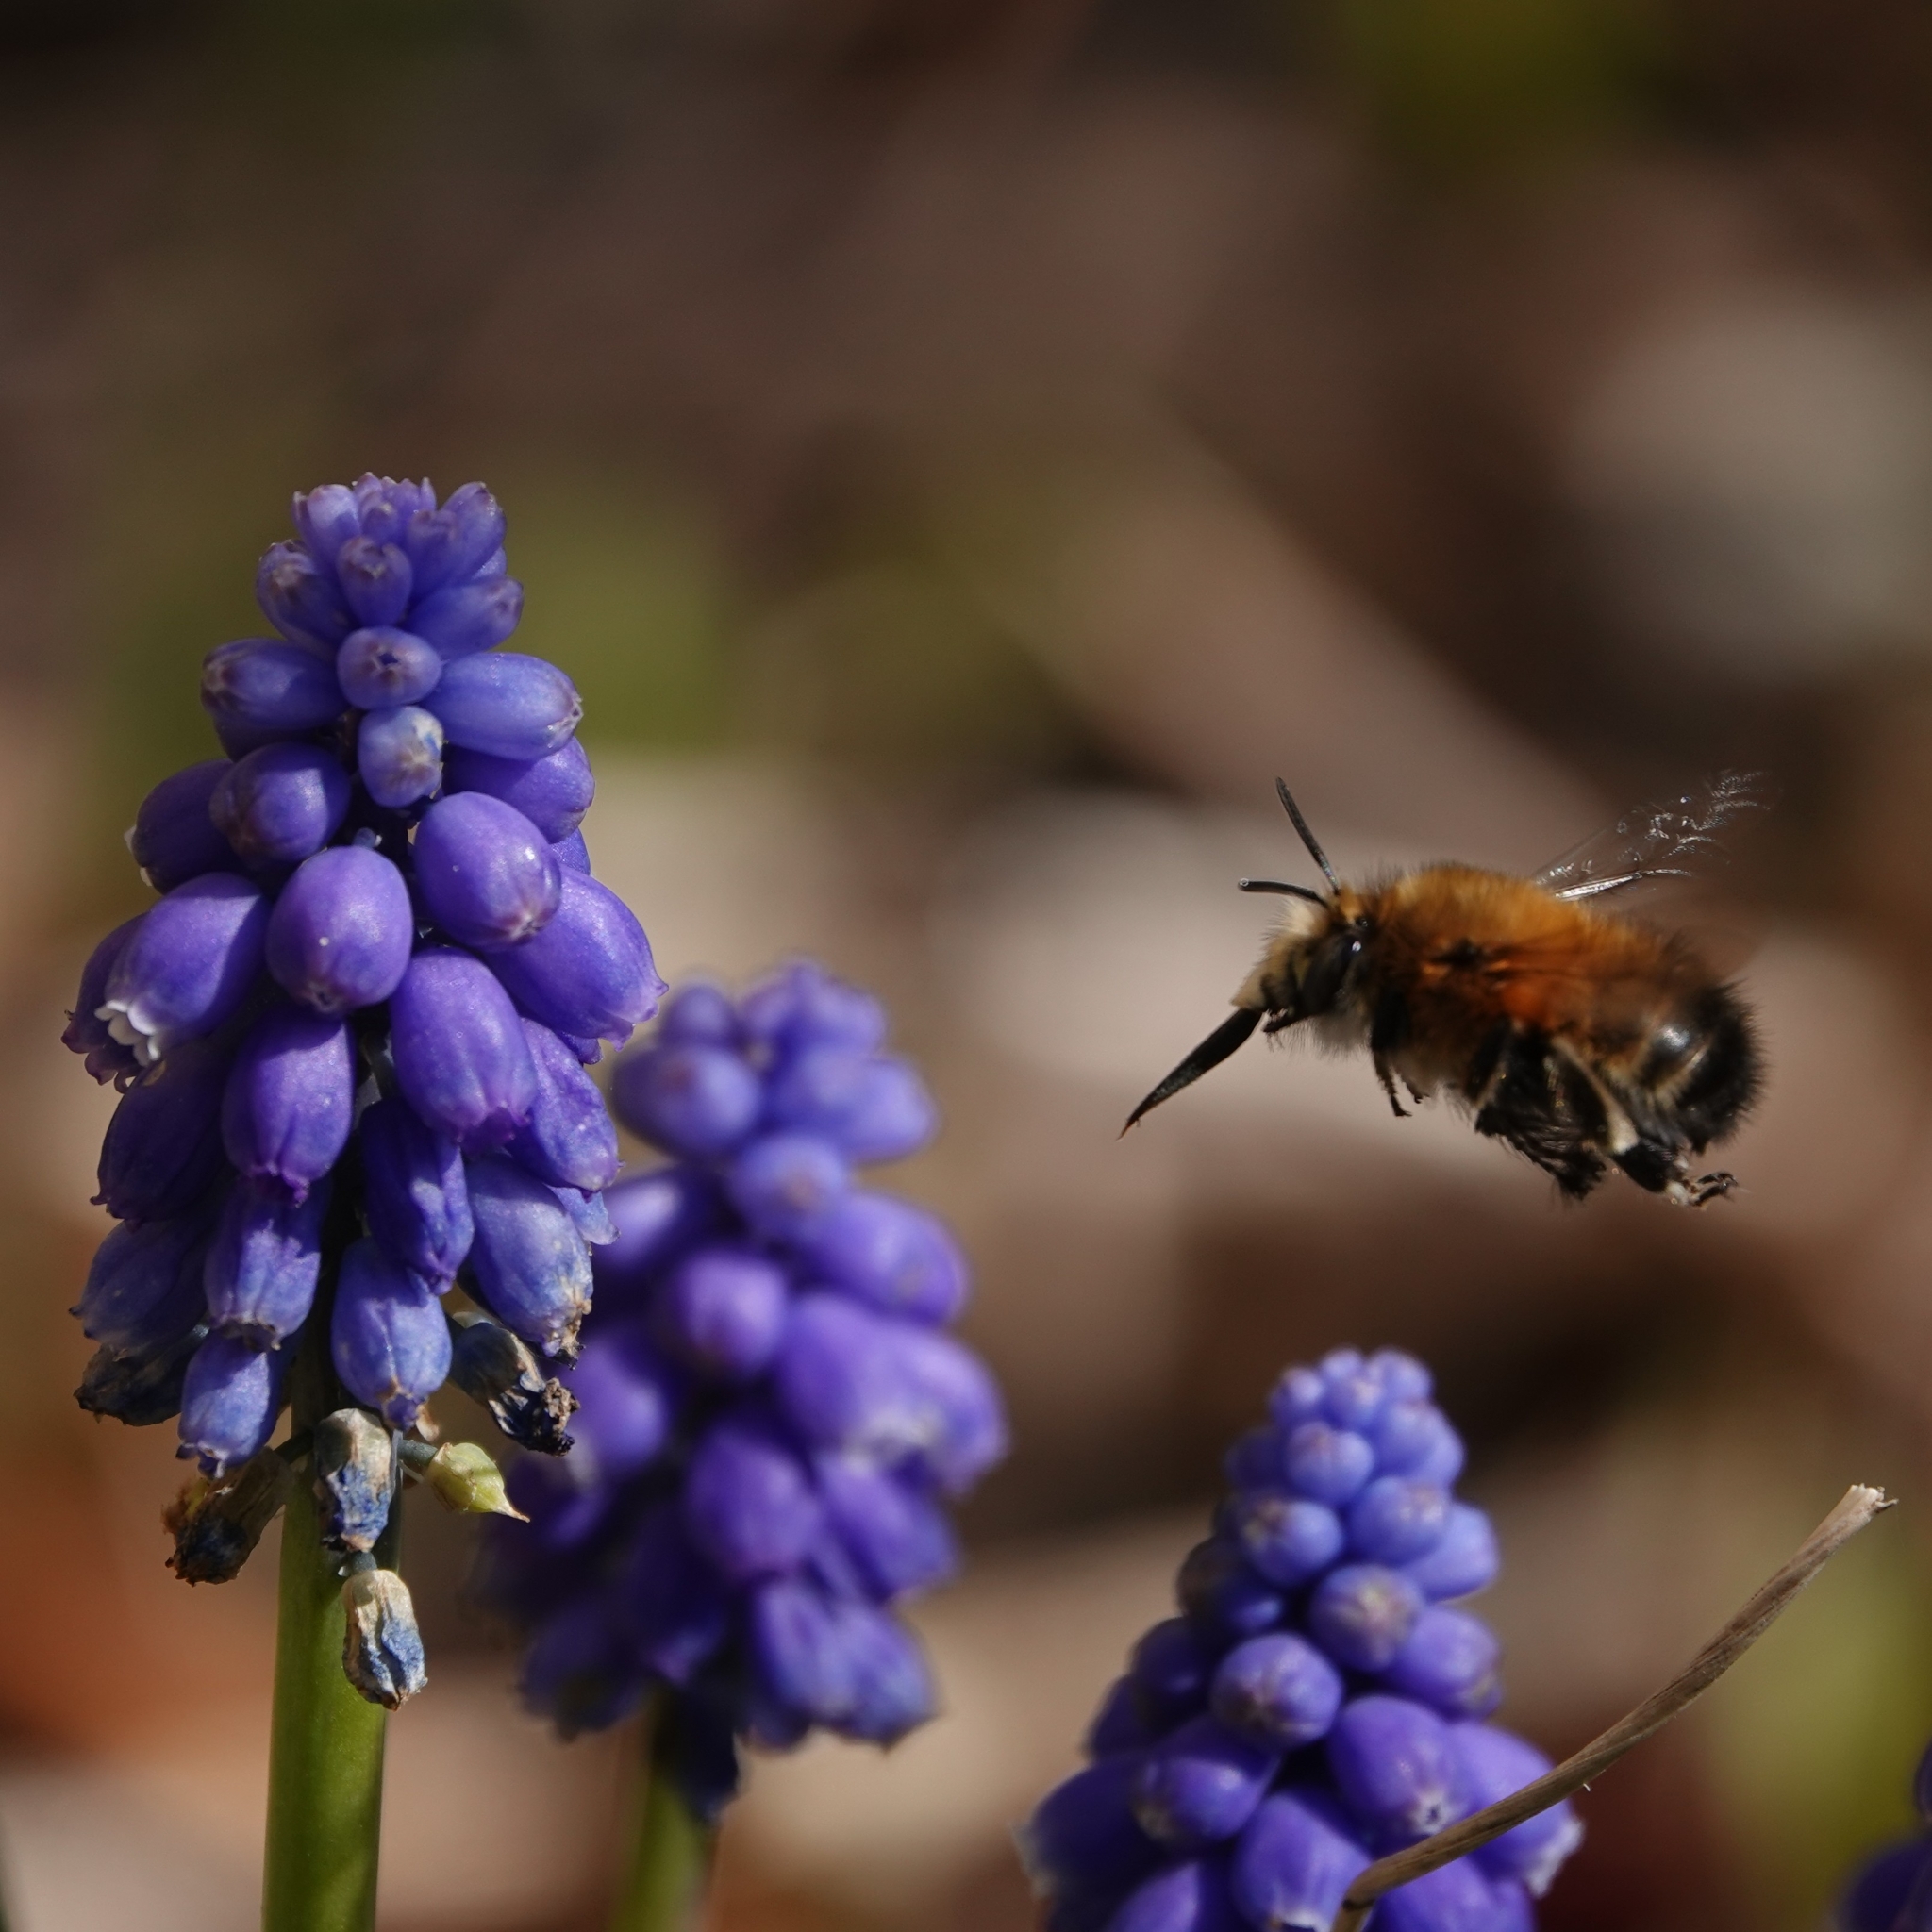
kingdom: Animalia
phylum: Arthropoda
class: Insecta
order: Hymenoptera
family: Apidae
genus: Anthophora
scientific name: Anthophora plumipes
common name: Hairy-footed flower bee
